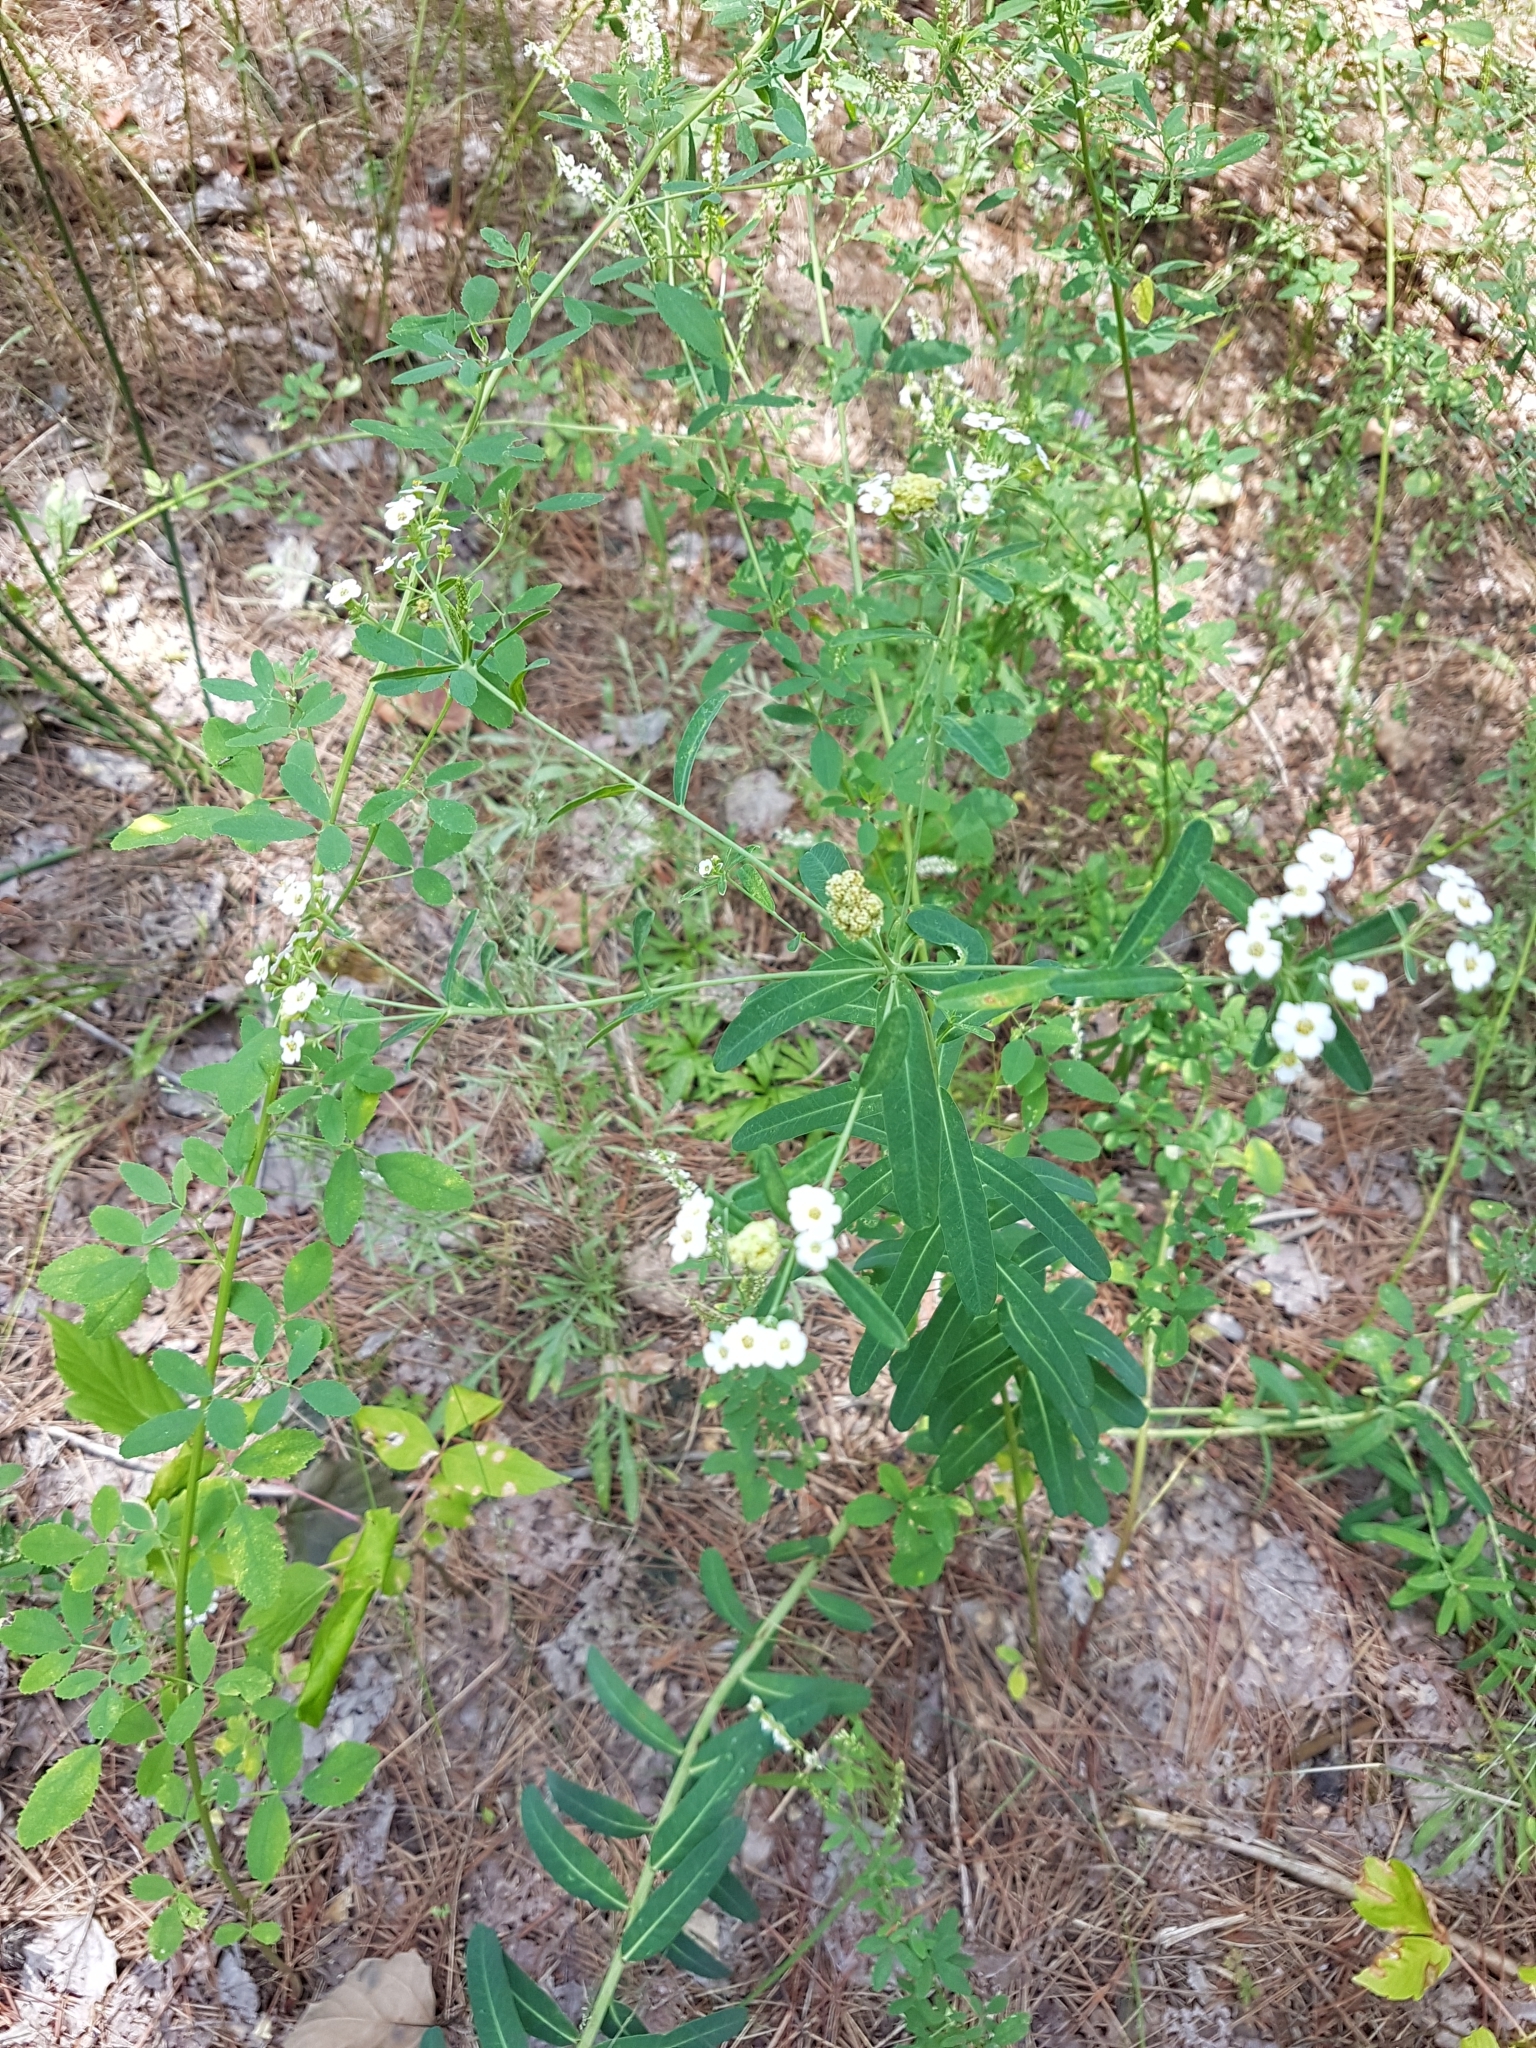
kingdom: Plantae
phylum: Tracheophyta
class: Magnoliopsida
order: Malpighiales
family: Euphorbiaceae
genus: Euphorbia
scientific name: Euphorbia corollata
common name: Flowering spurge
